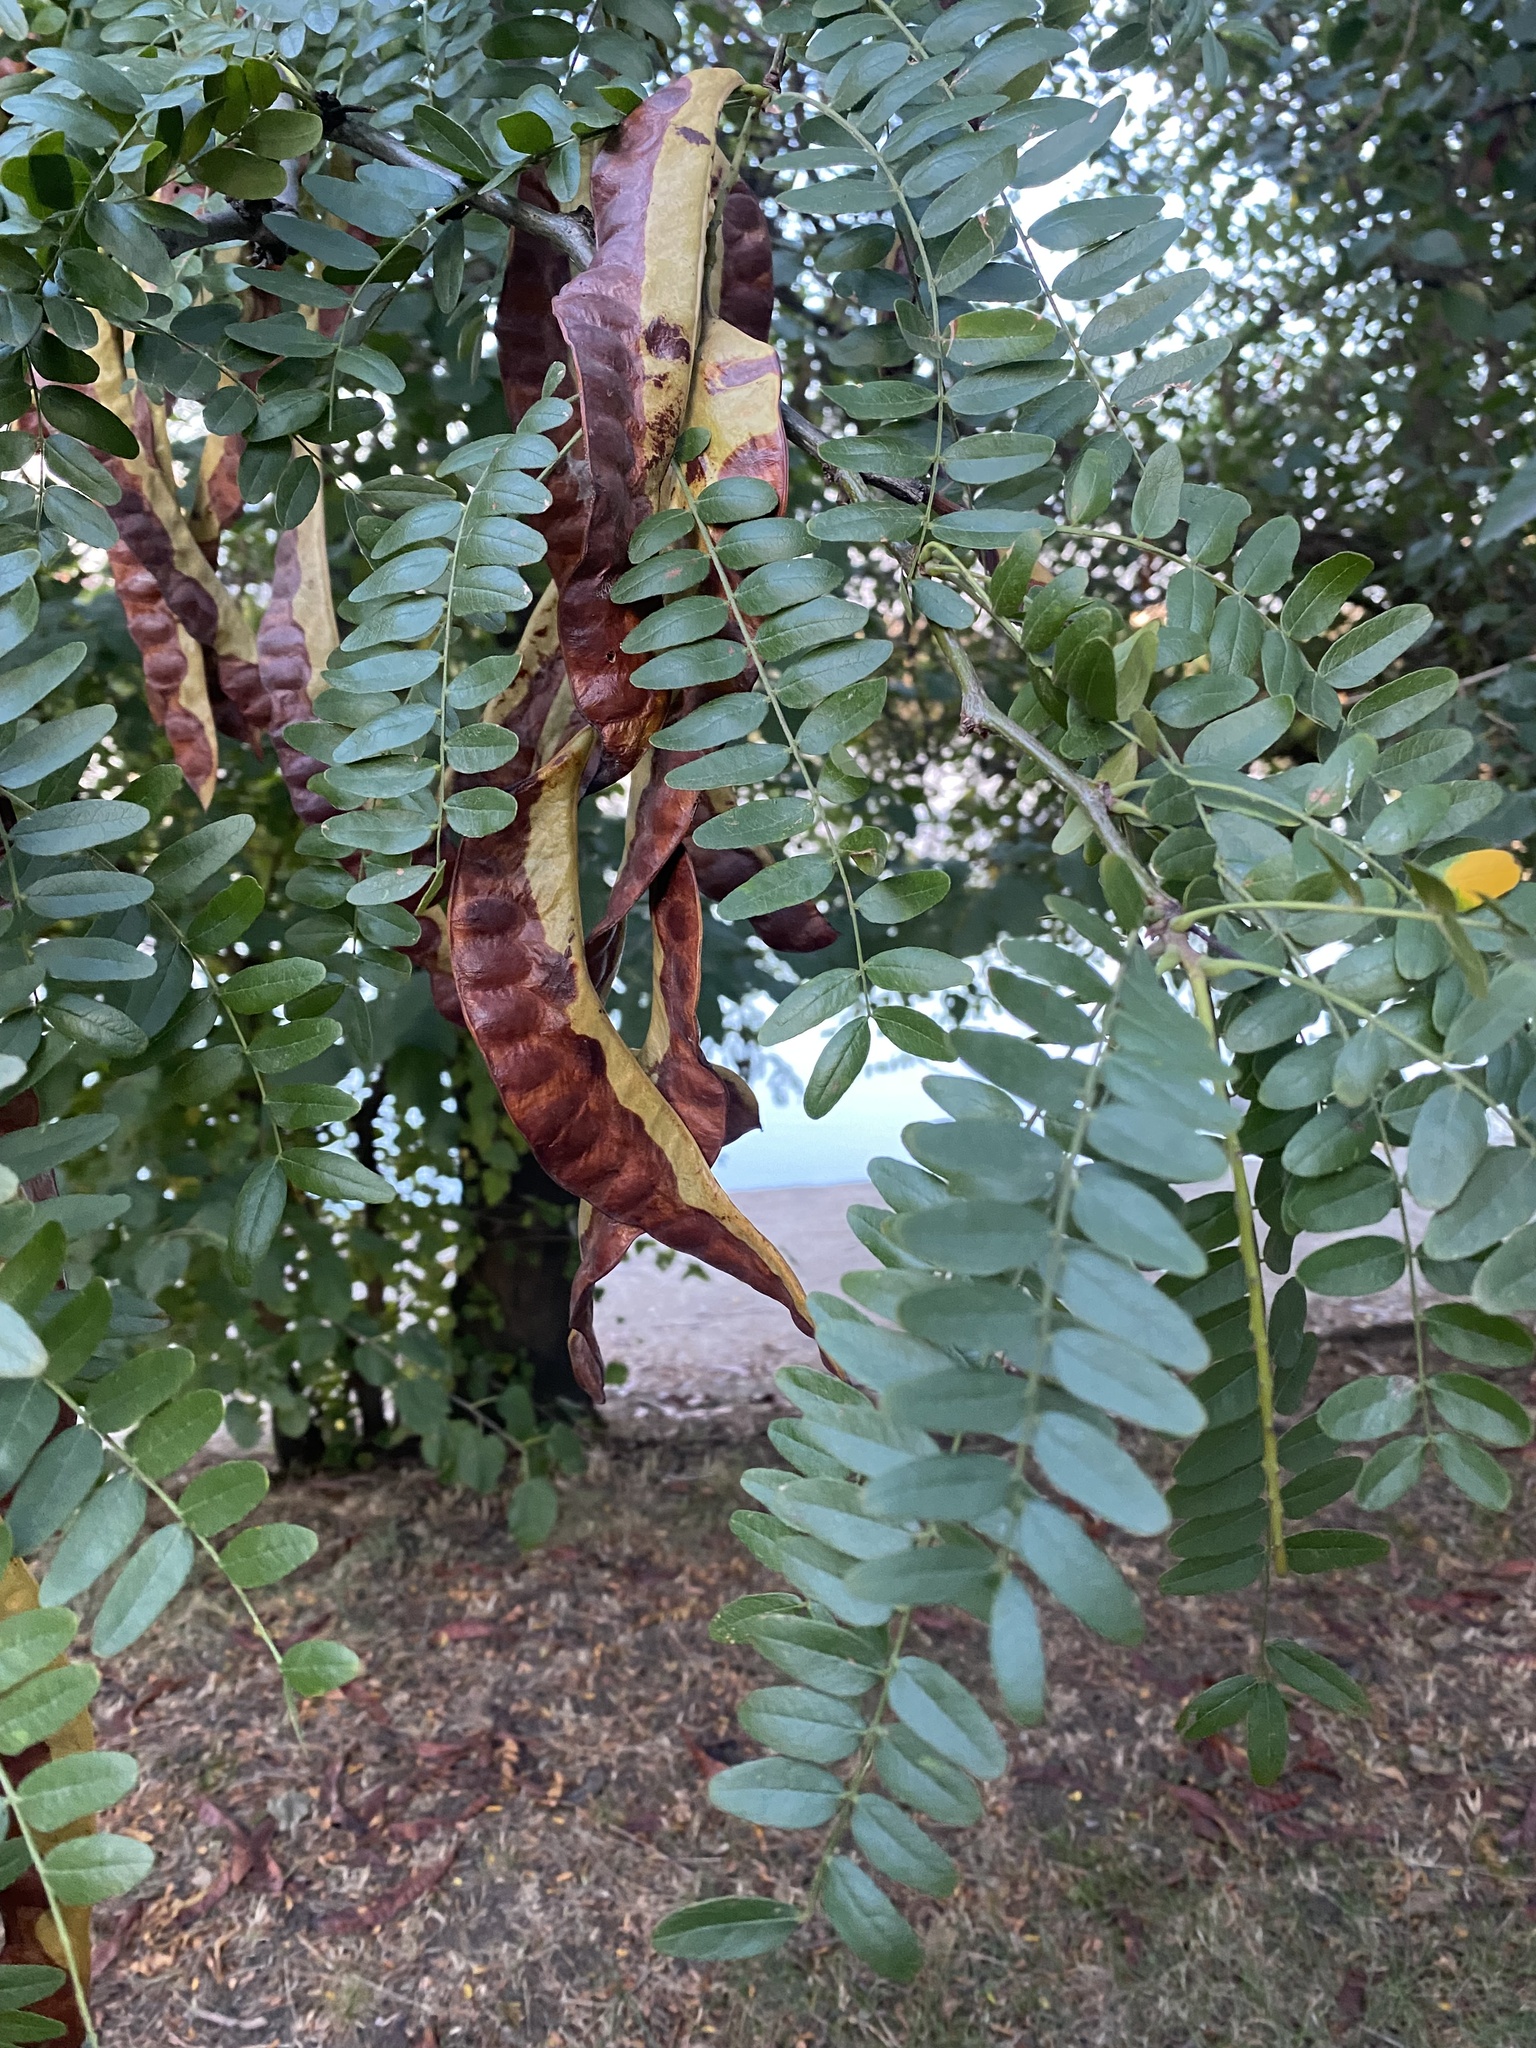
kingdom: Plantae
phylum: Tracheophyta
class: Magnoliopsida
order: Fabales
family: Fabaceae
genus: Gleditsia
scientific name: Gleditsia triacanthos
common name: Common honeylocust
